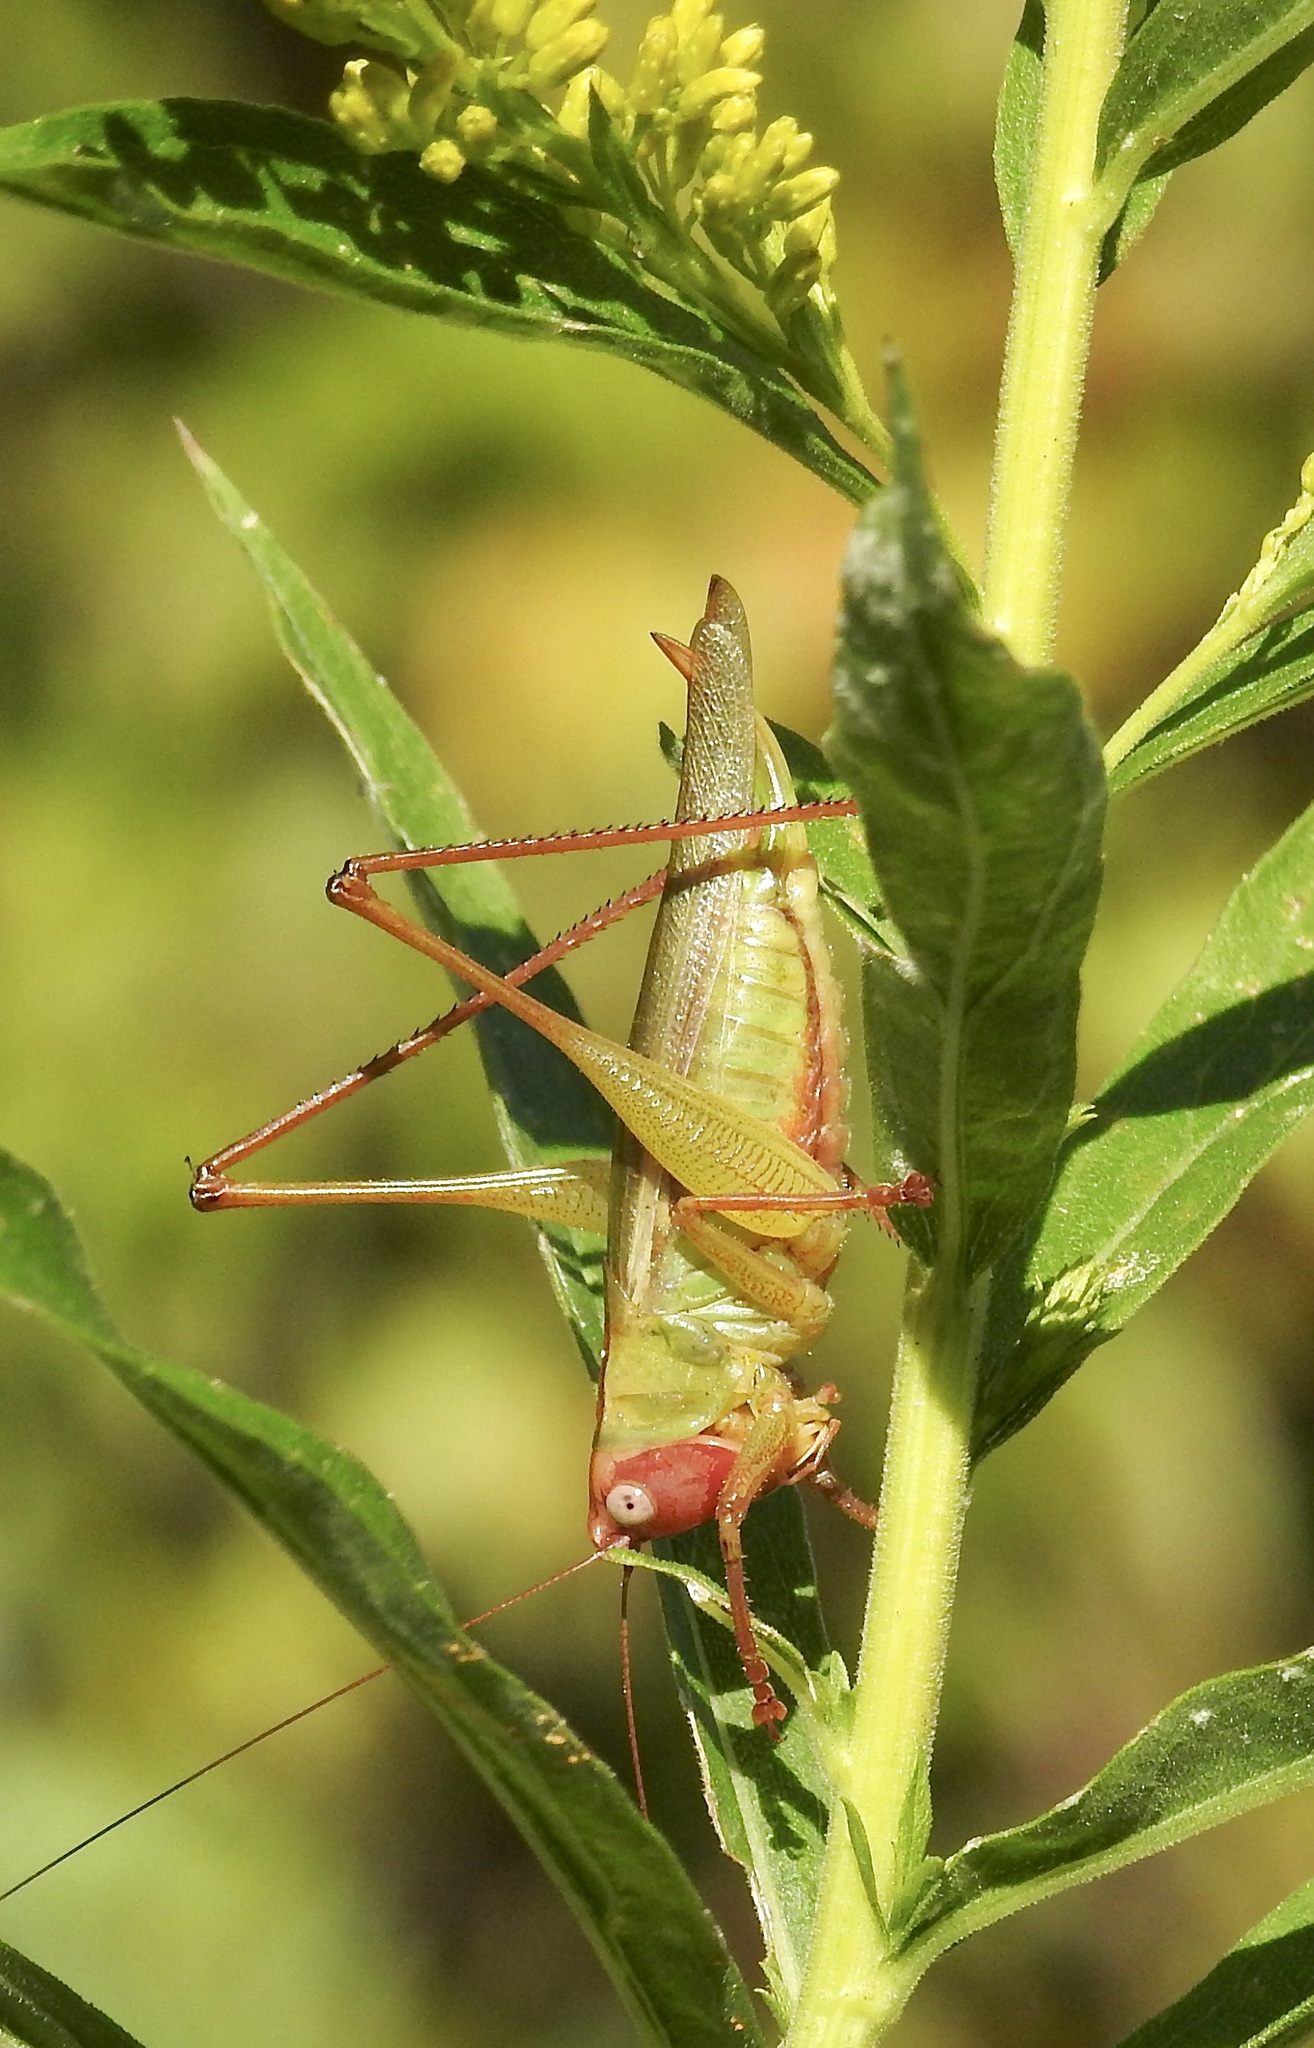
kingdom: Animalia
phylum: Arthropoda
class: Insecta
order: Orthoptera
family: Tettigoniidae
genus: Orchelimum
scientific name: Orchelimum erythrocephalum
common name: Red-headed meadow katydid
